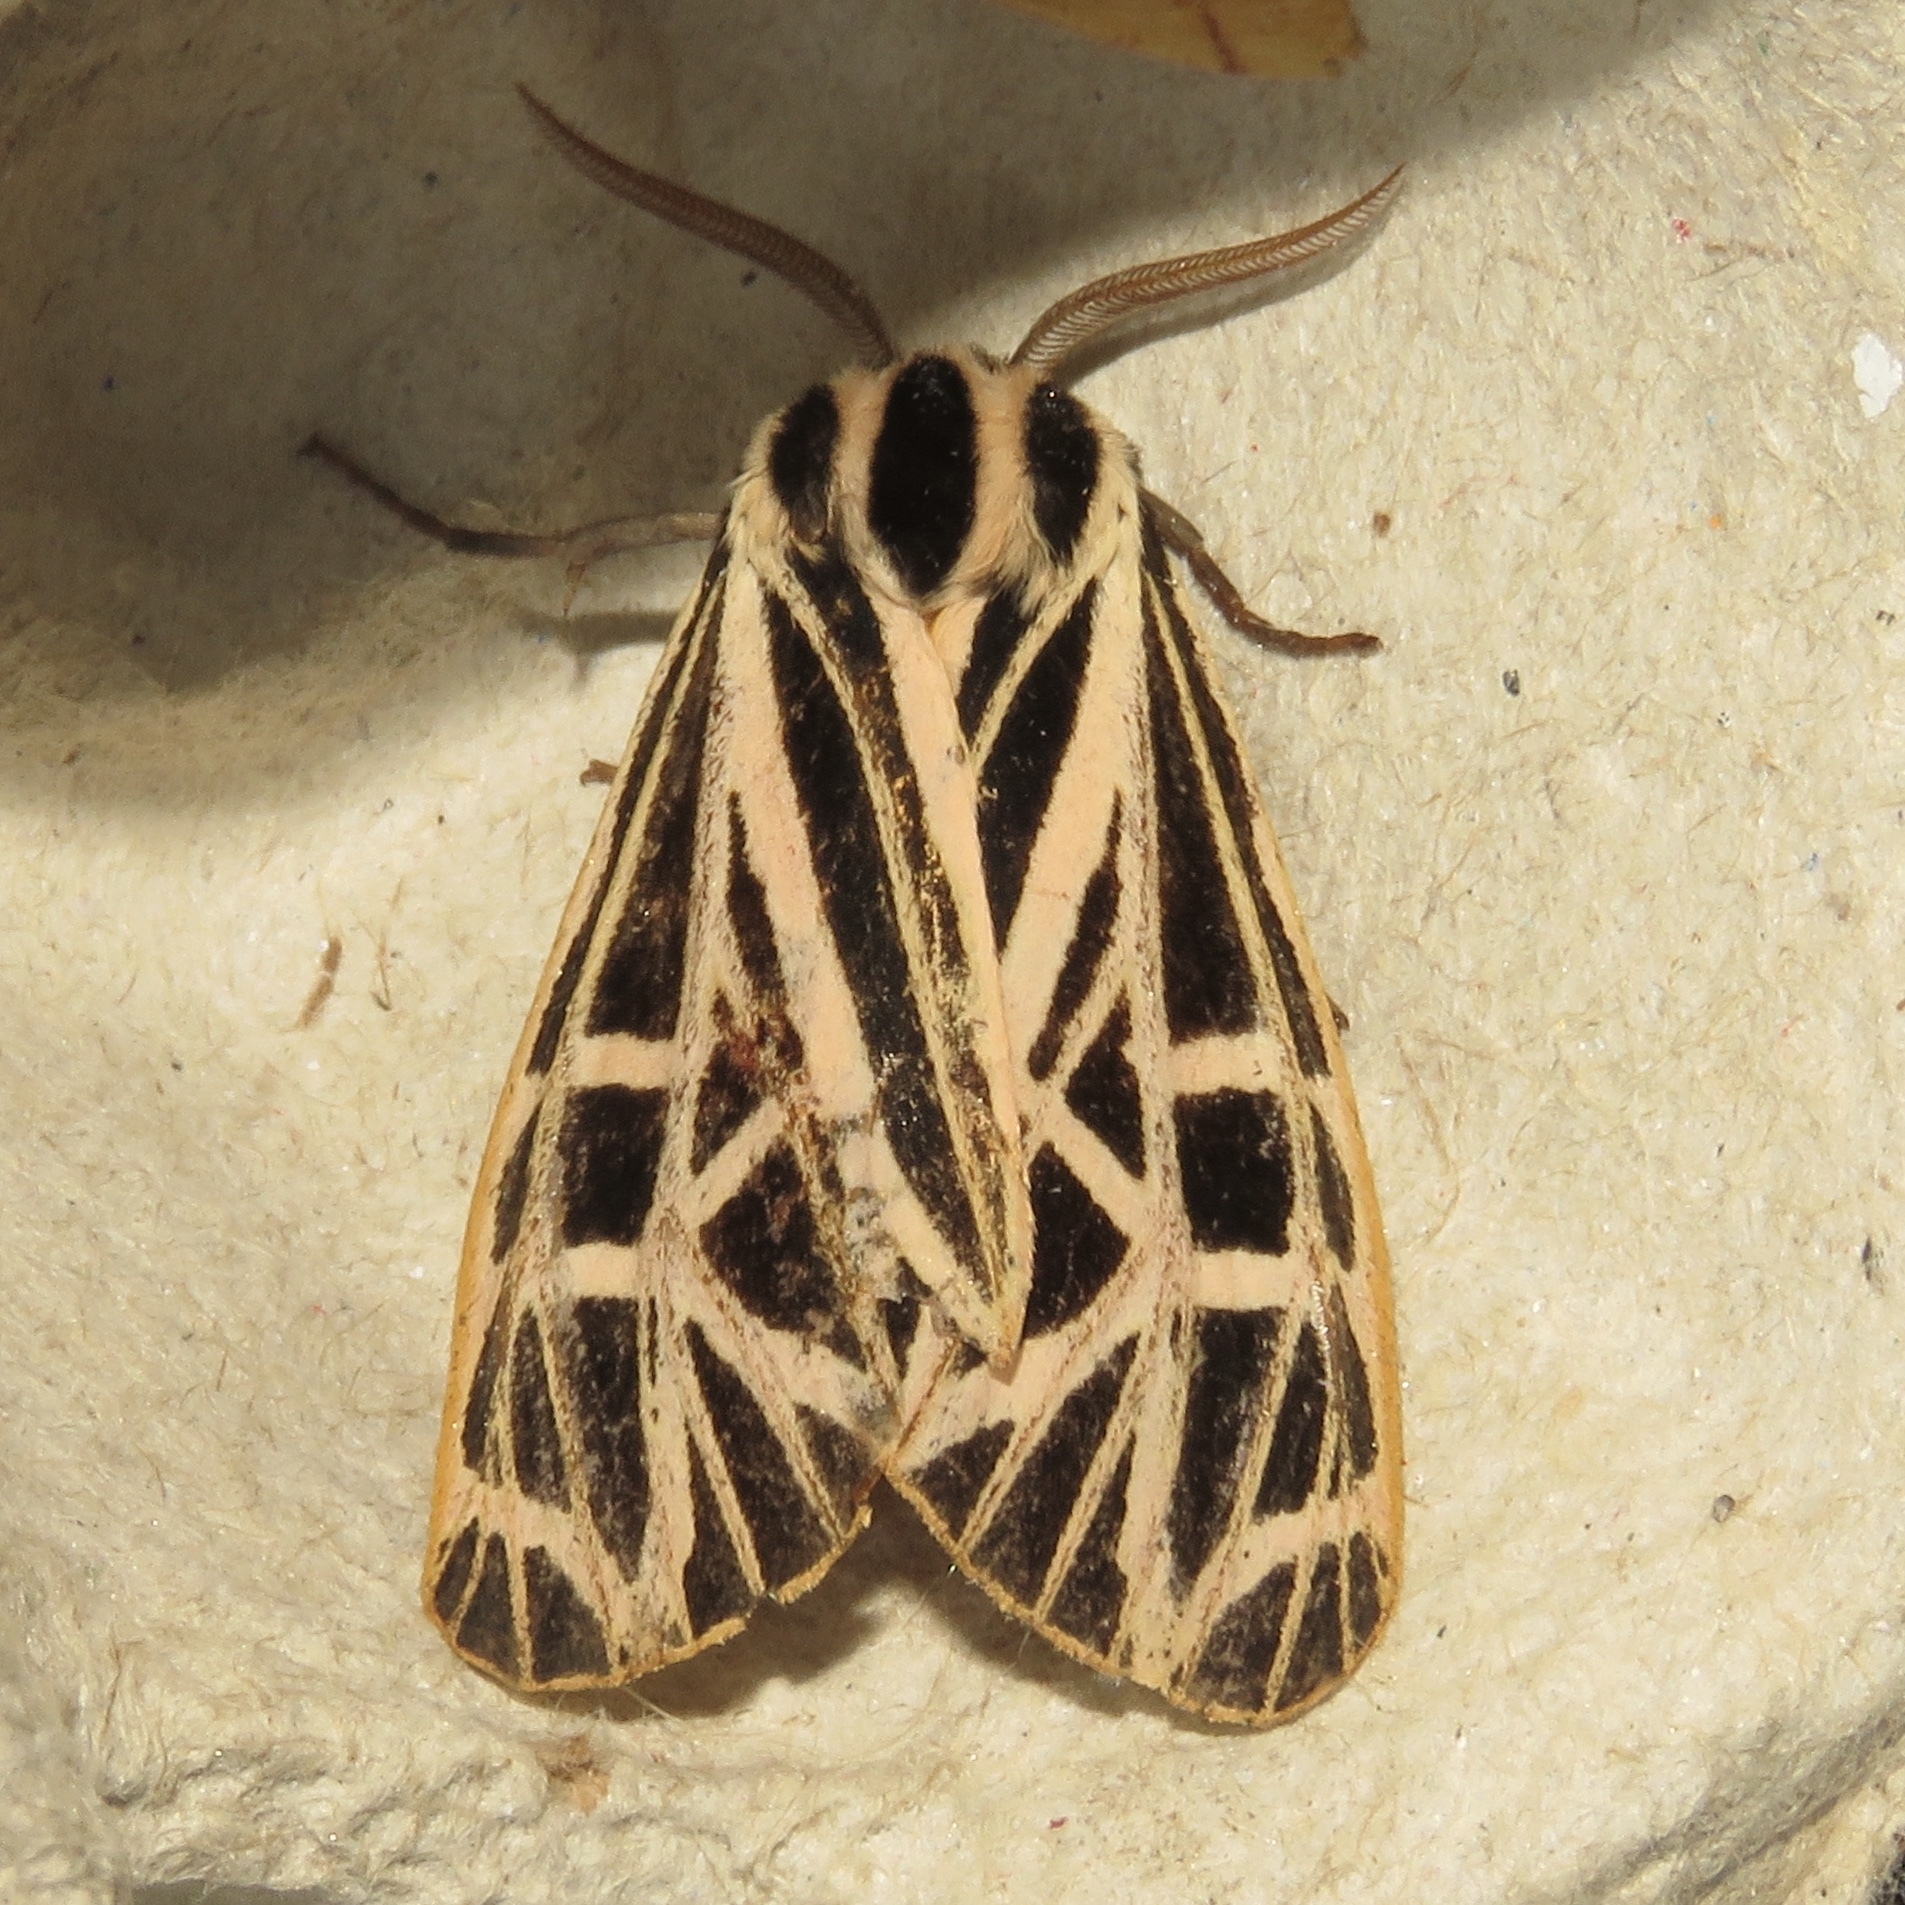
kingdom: Animalia
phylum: Arthropoda
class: Insecta
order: Lepidoptera
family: Erebidae
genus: Grammia
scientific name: Grammia virgo
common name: Virgin tiger moth
